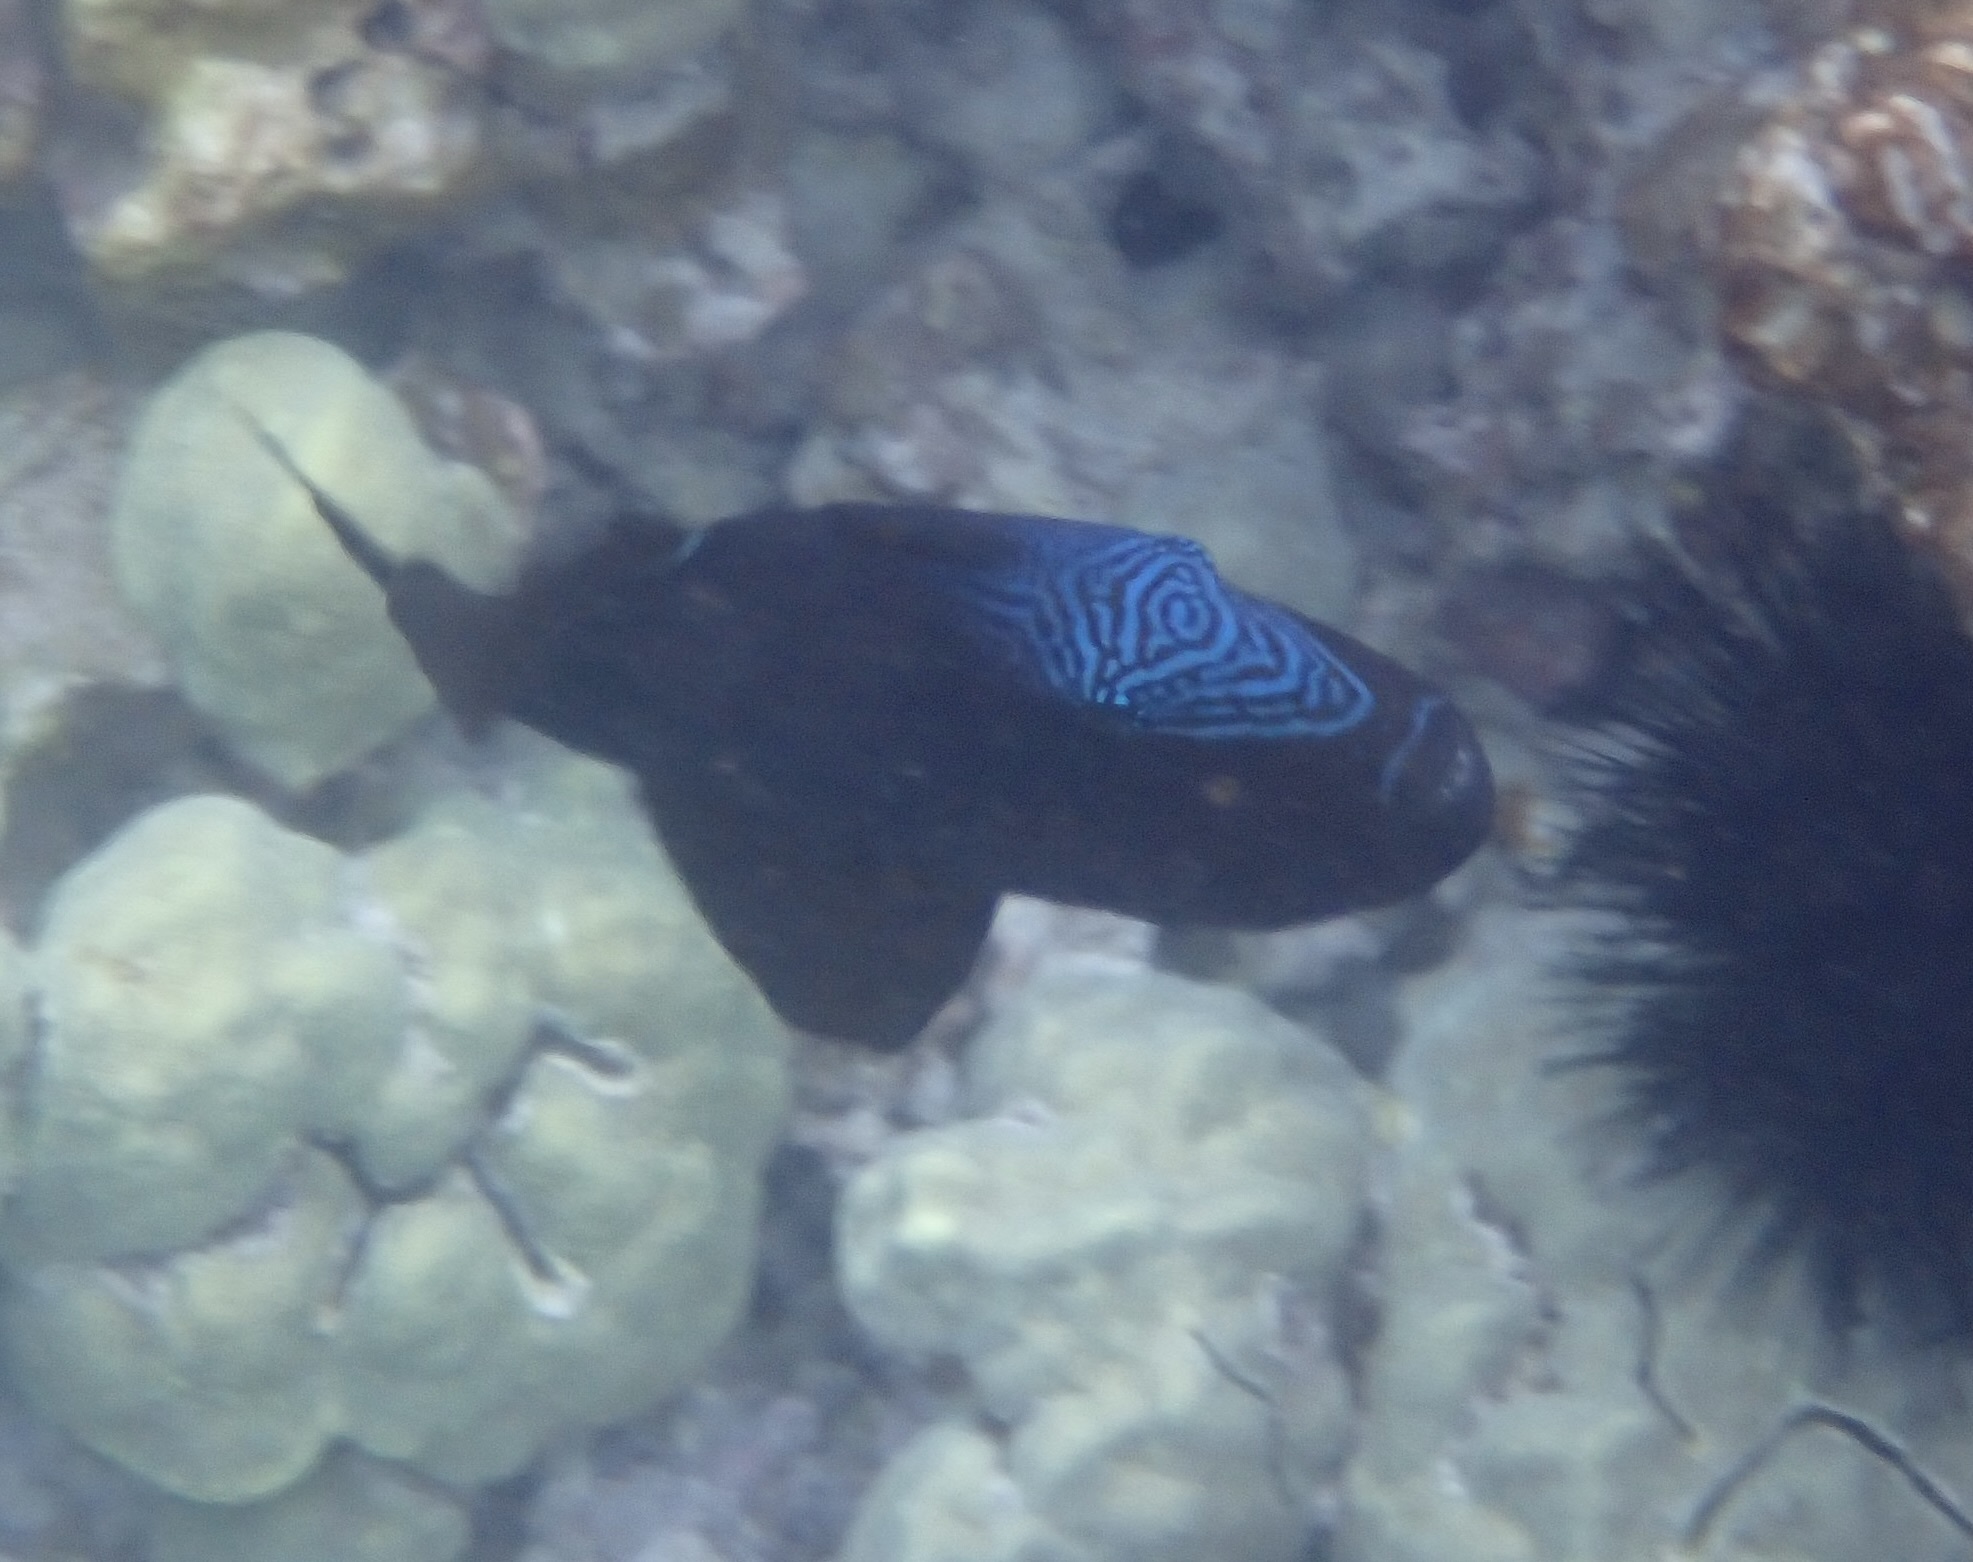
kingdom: Animalia
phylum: Chordata
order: Tetraodontiformes
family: Balistidae
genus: Melichthys
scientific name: Melichthys niger
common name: Black durgon
